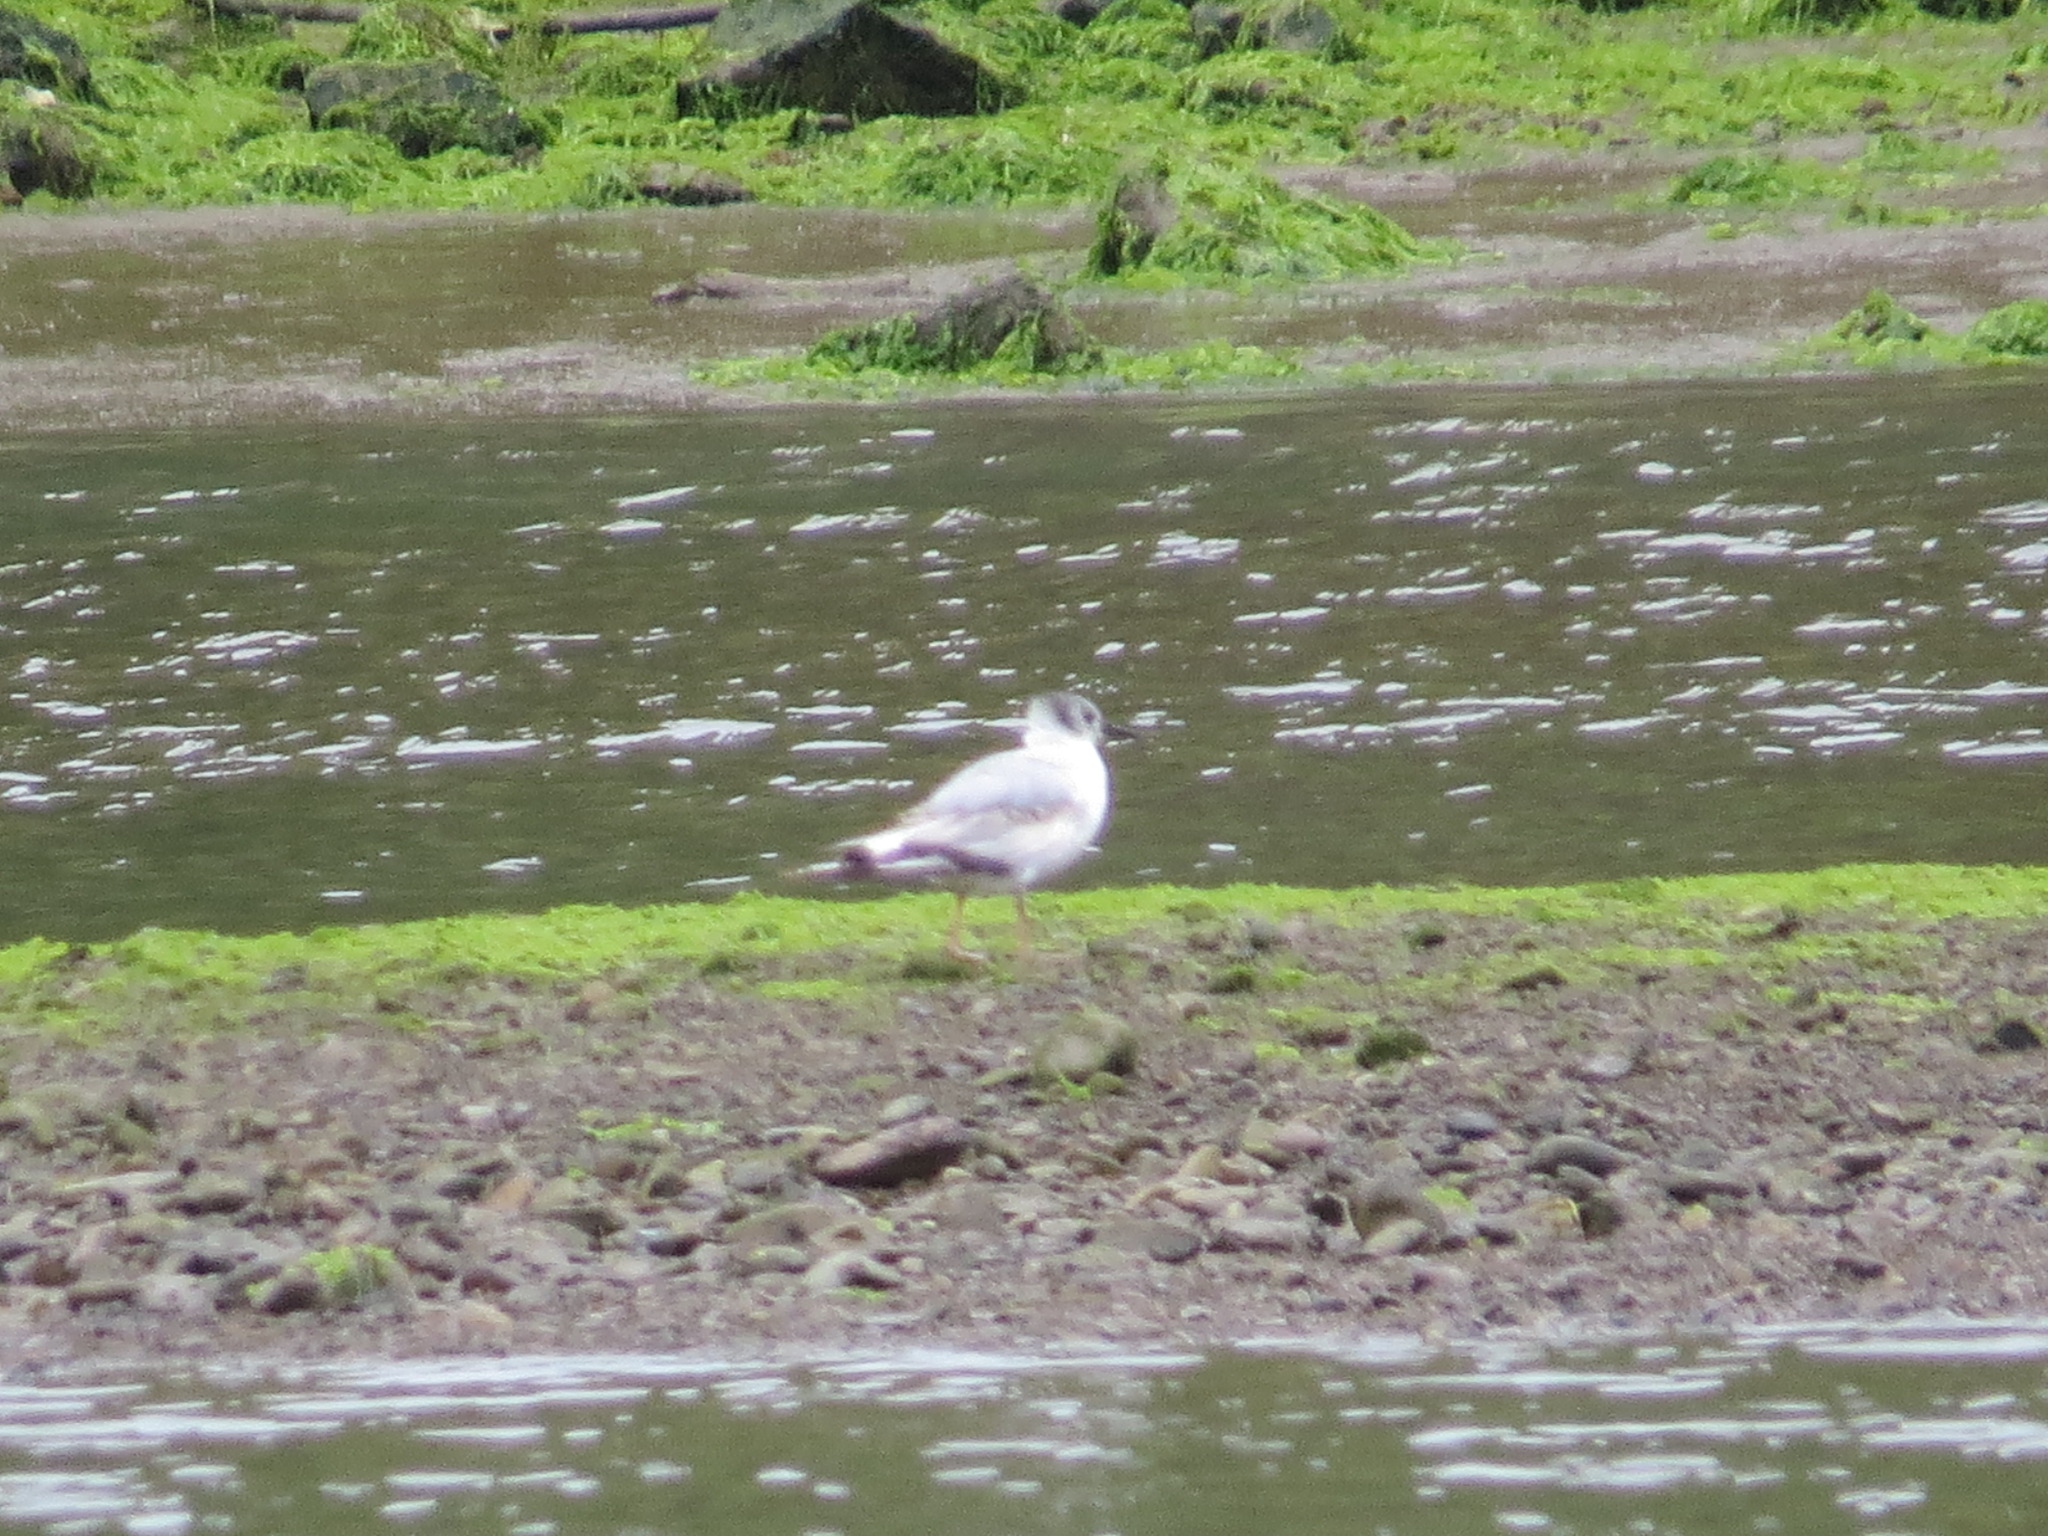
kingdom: Animalia
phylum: Chordata
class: Aves
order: Charadriiformes
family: Laridae
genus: Chroicocephalus
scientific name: Chroicocephalus philadelphia
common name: Bonaparte's gull
